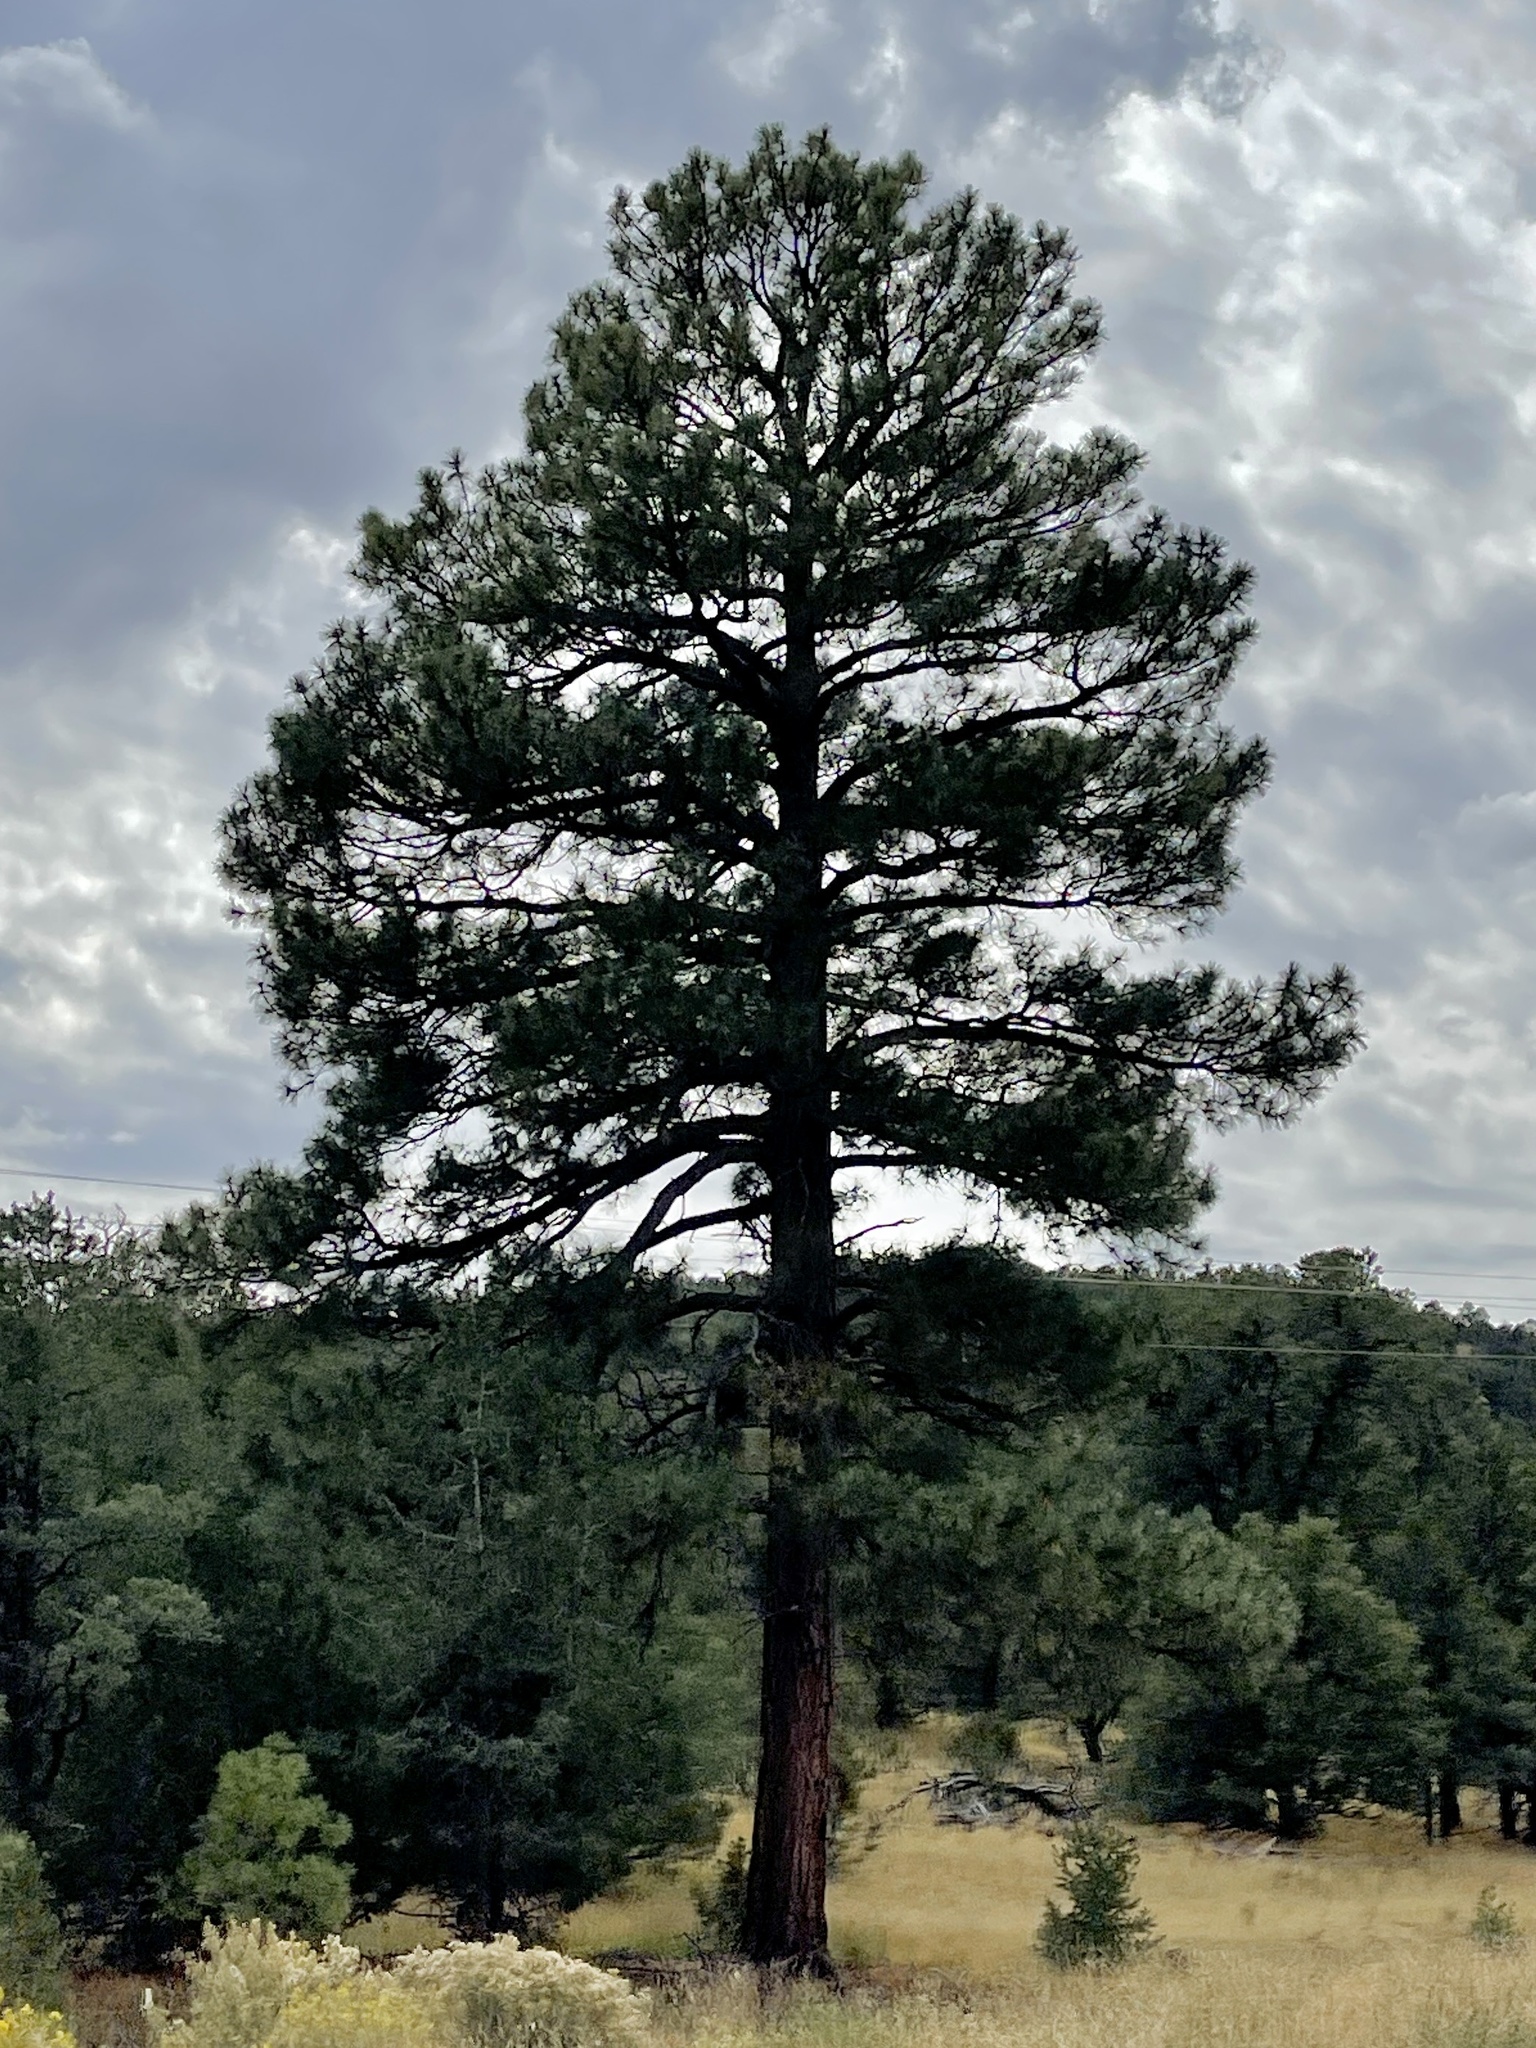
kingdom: Plantae
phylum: Tracheophyta
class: Pinopsida
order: Pinales
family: Pinaceae
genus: Pinus
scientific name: Pinus ponderosa
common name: Western yellow-pine
